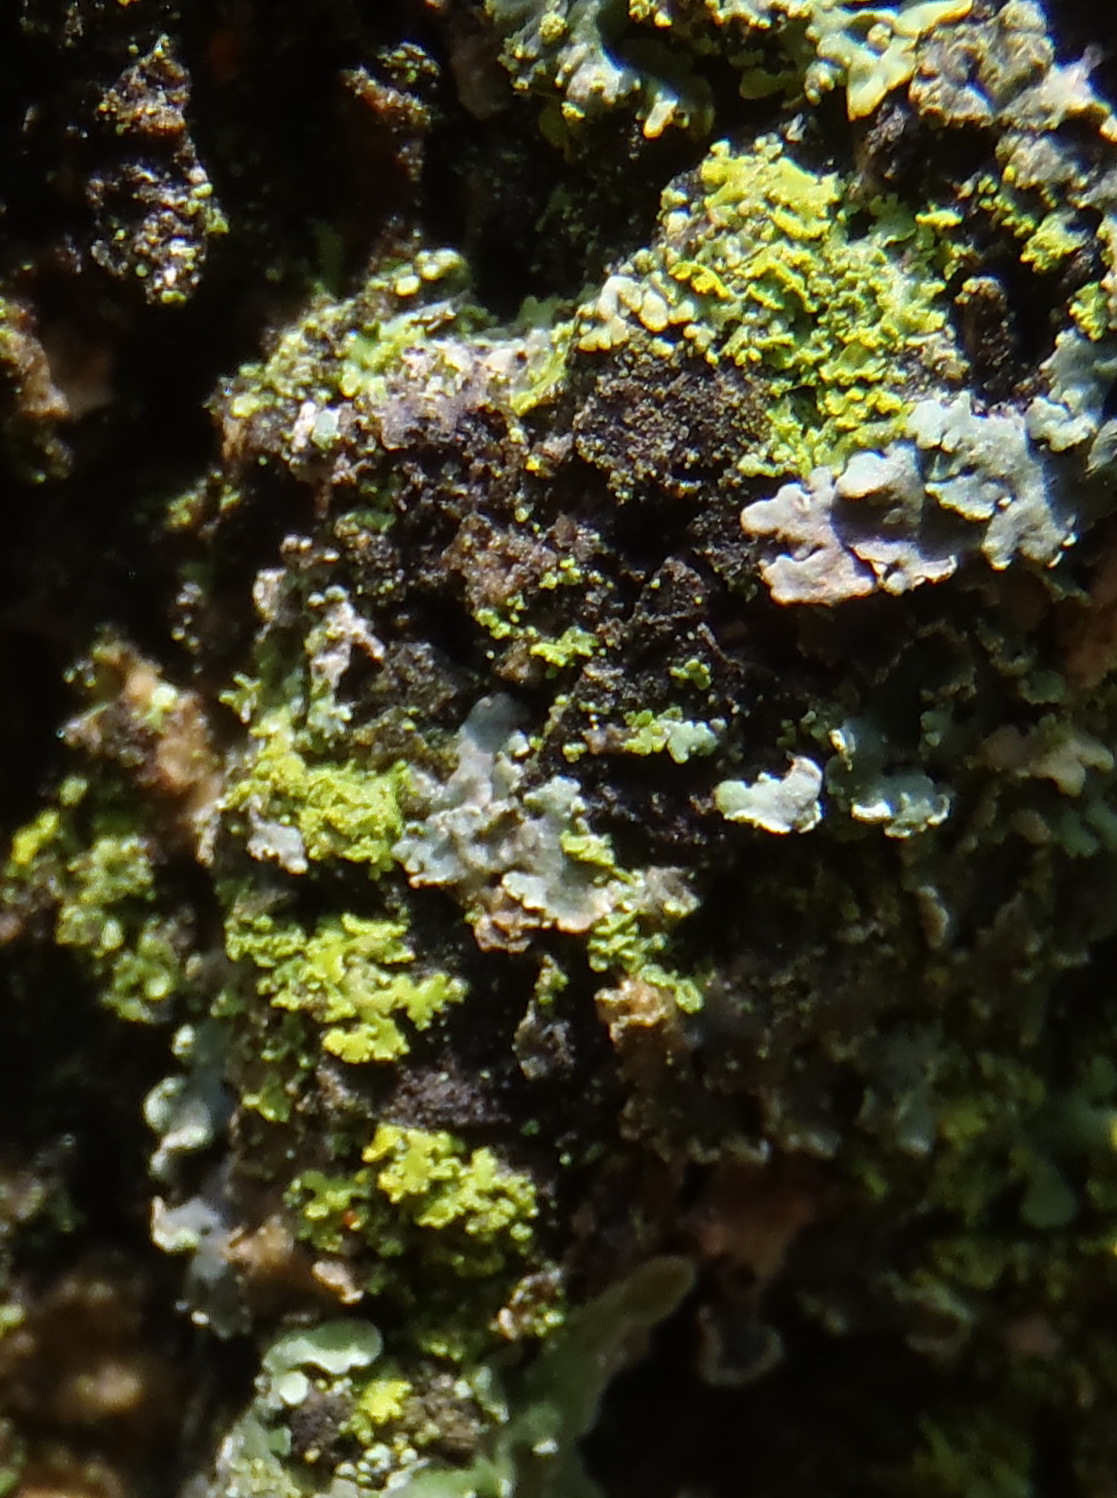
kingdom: Fungi
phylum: Ascomycota
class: Candelariomycetes
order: Candelariales
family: Candelariaceae
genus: Candelaria
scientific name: Candelaria concolor
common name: Candleflame lichen
